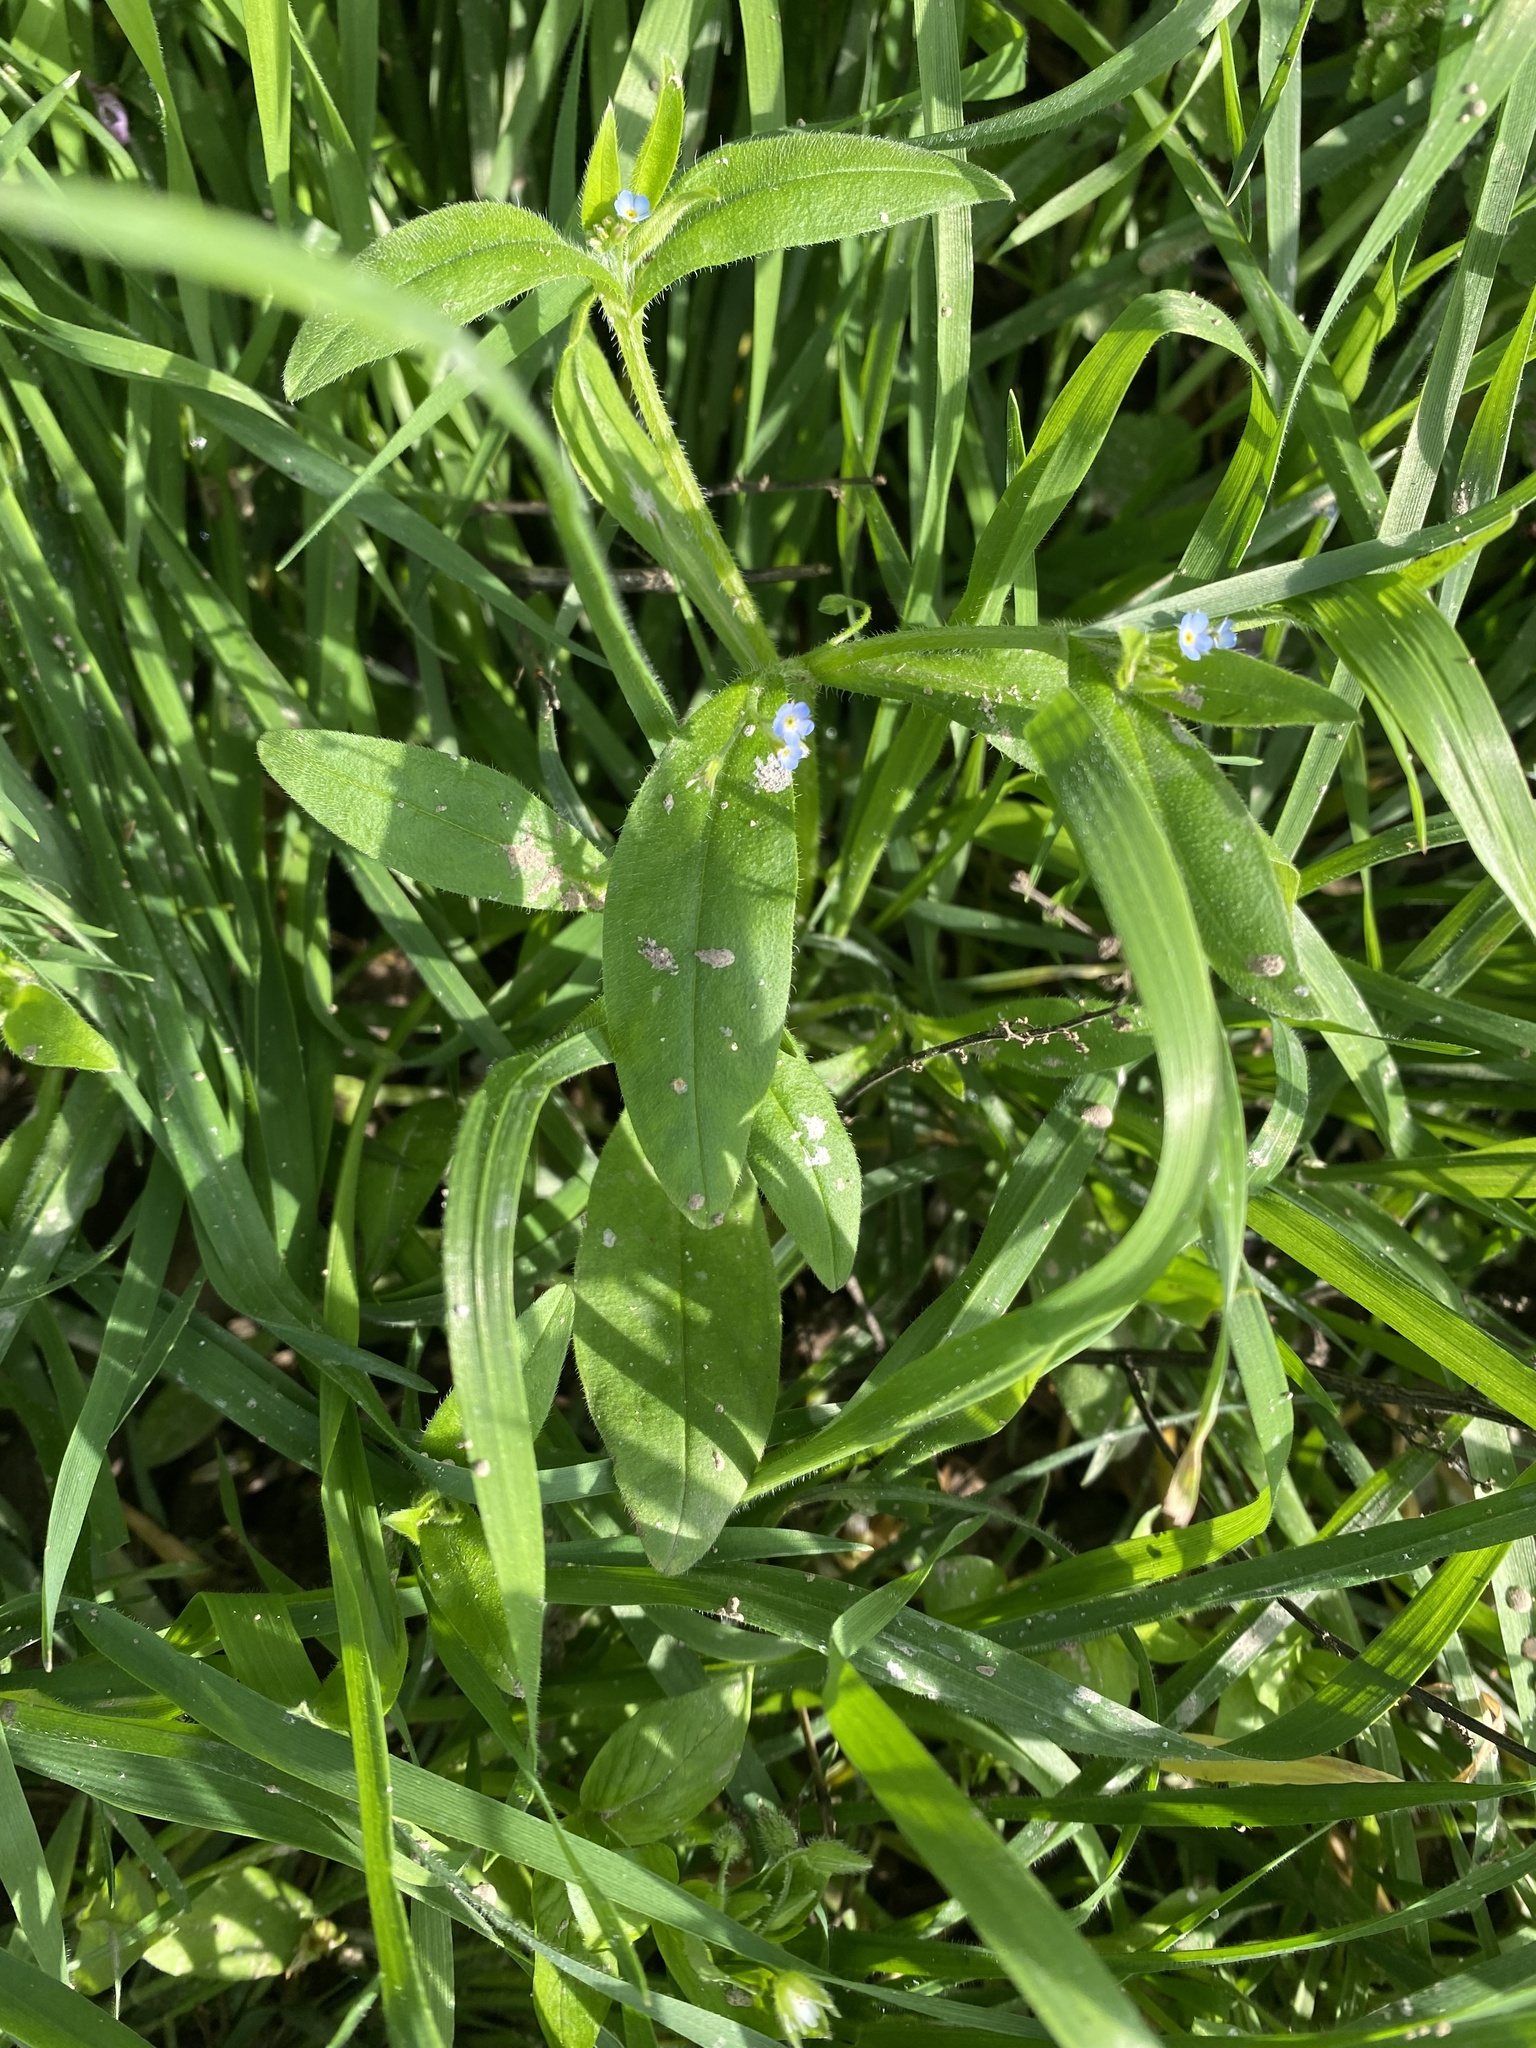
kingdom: Plantae
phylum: Tracheophyta
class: Magnoliopsida
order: Boraginales
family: Boraginaceae
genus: Myosotis
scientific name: Myosotis sparsiflora
